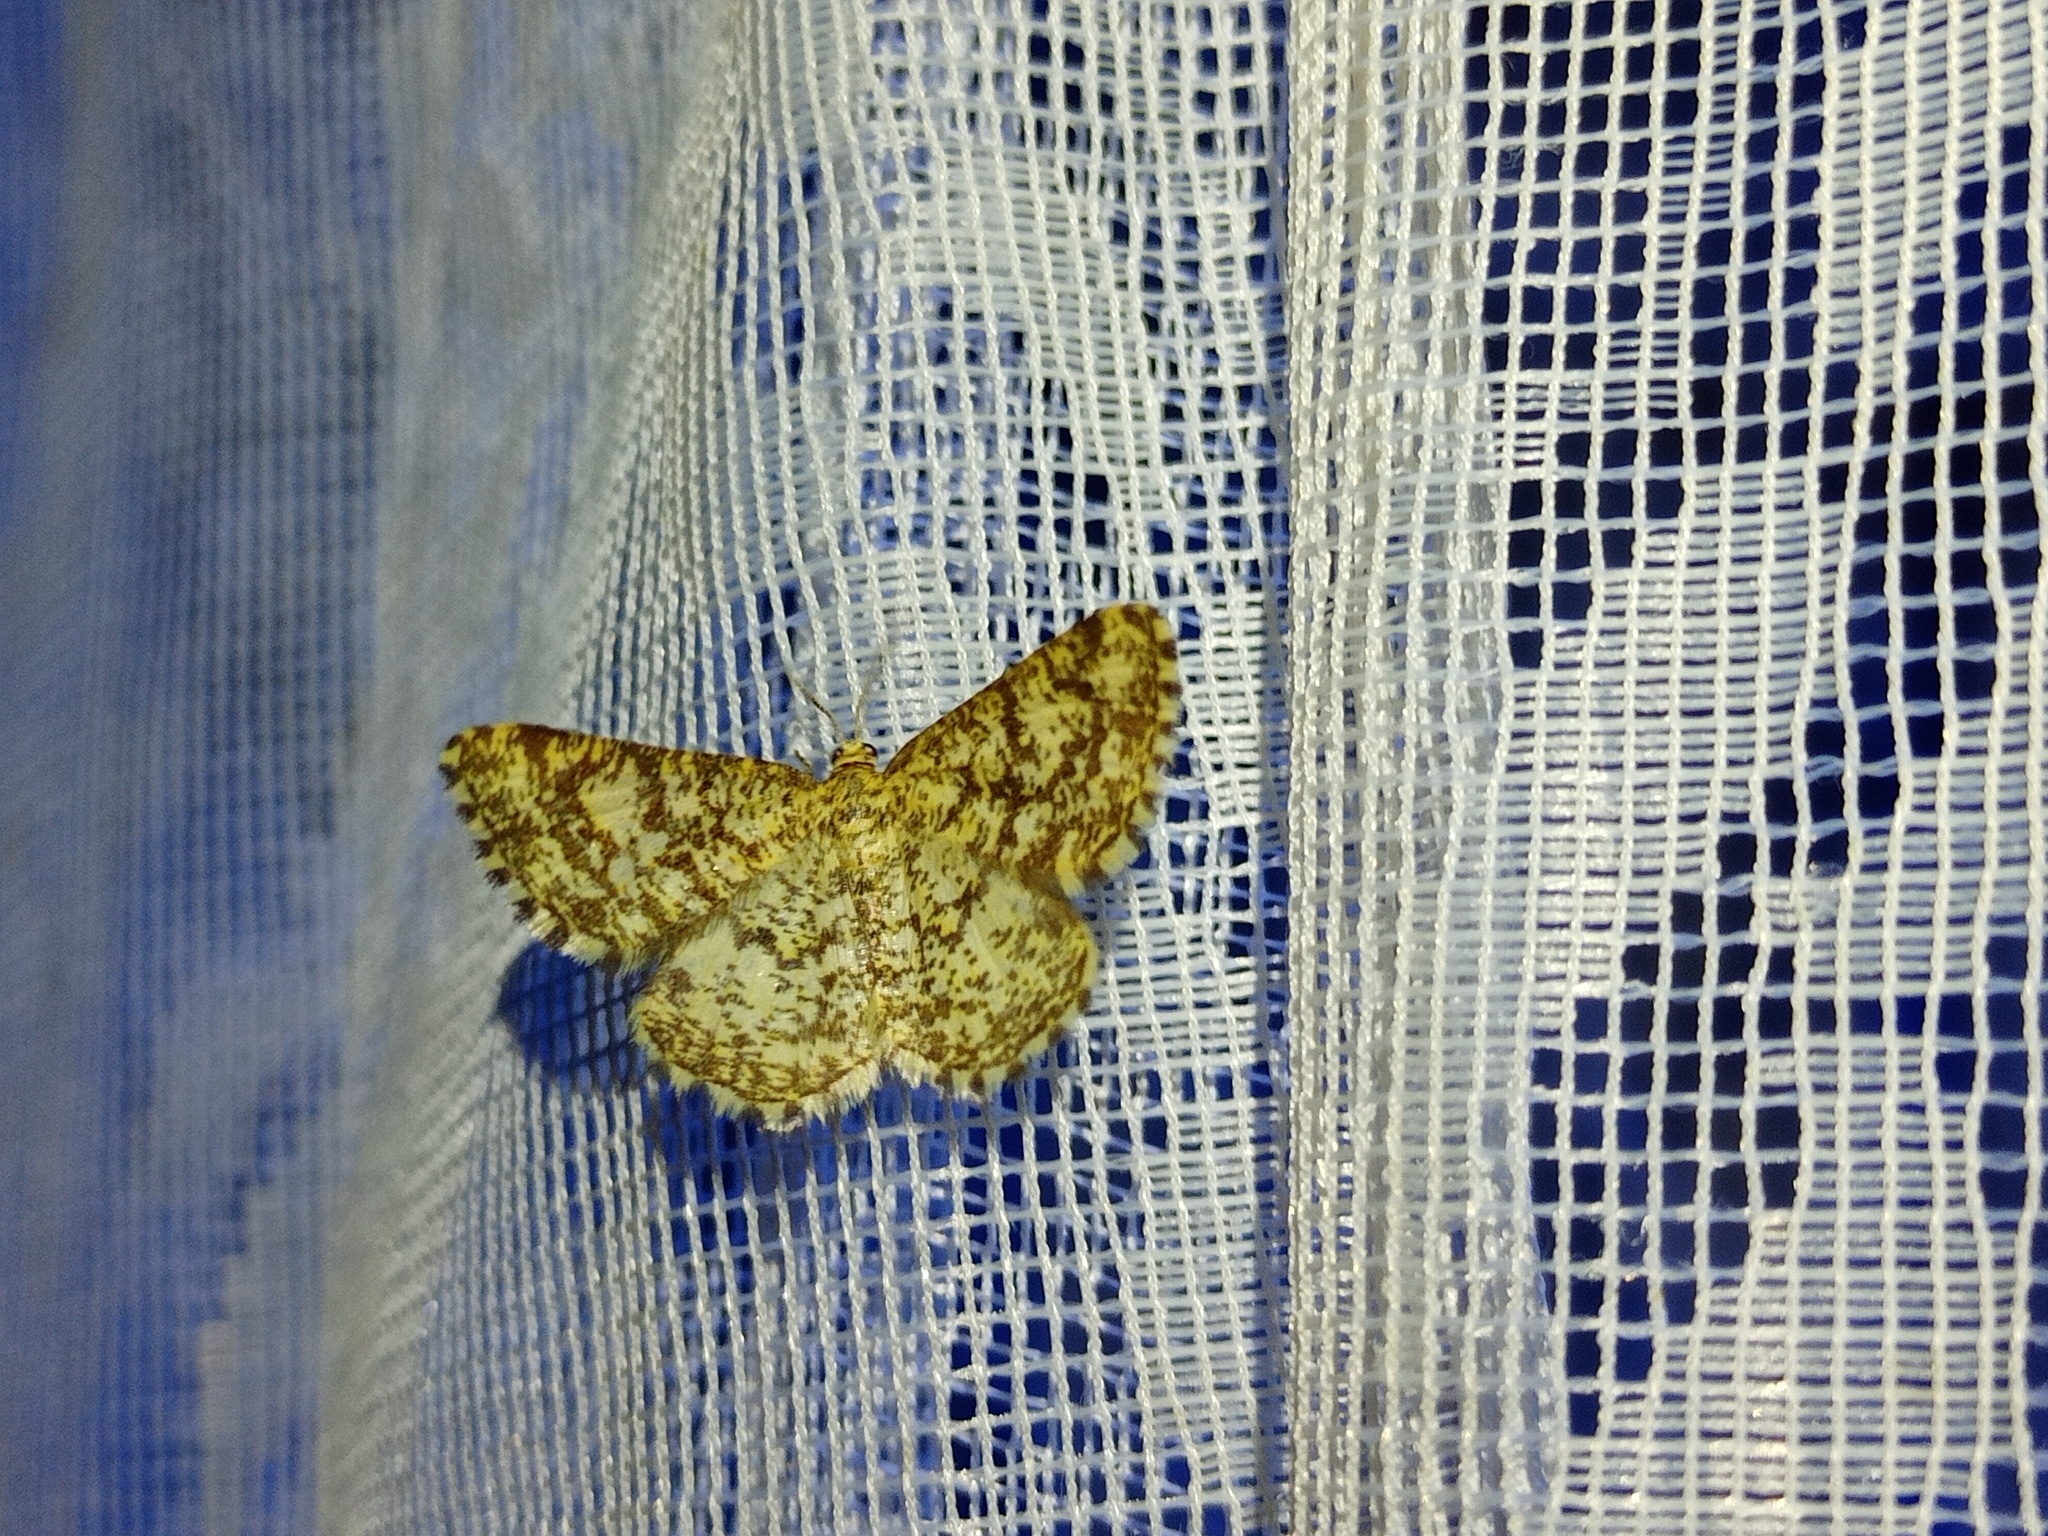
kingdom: Animalia
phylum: Arthropoda
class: Insecta
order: Lepidoptera
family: Geometridae
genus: Heliomata
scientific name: Heliomata glarearia
